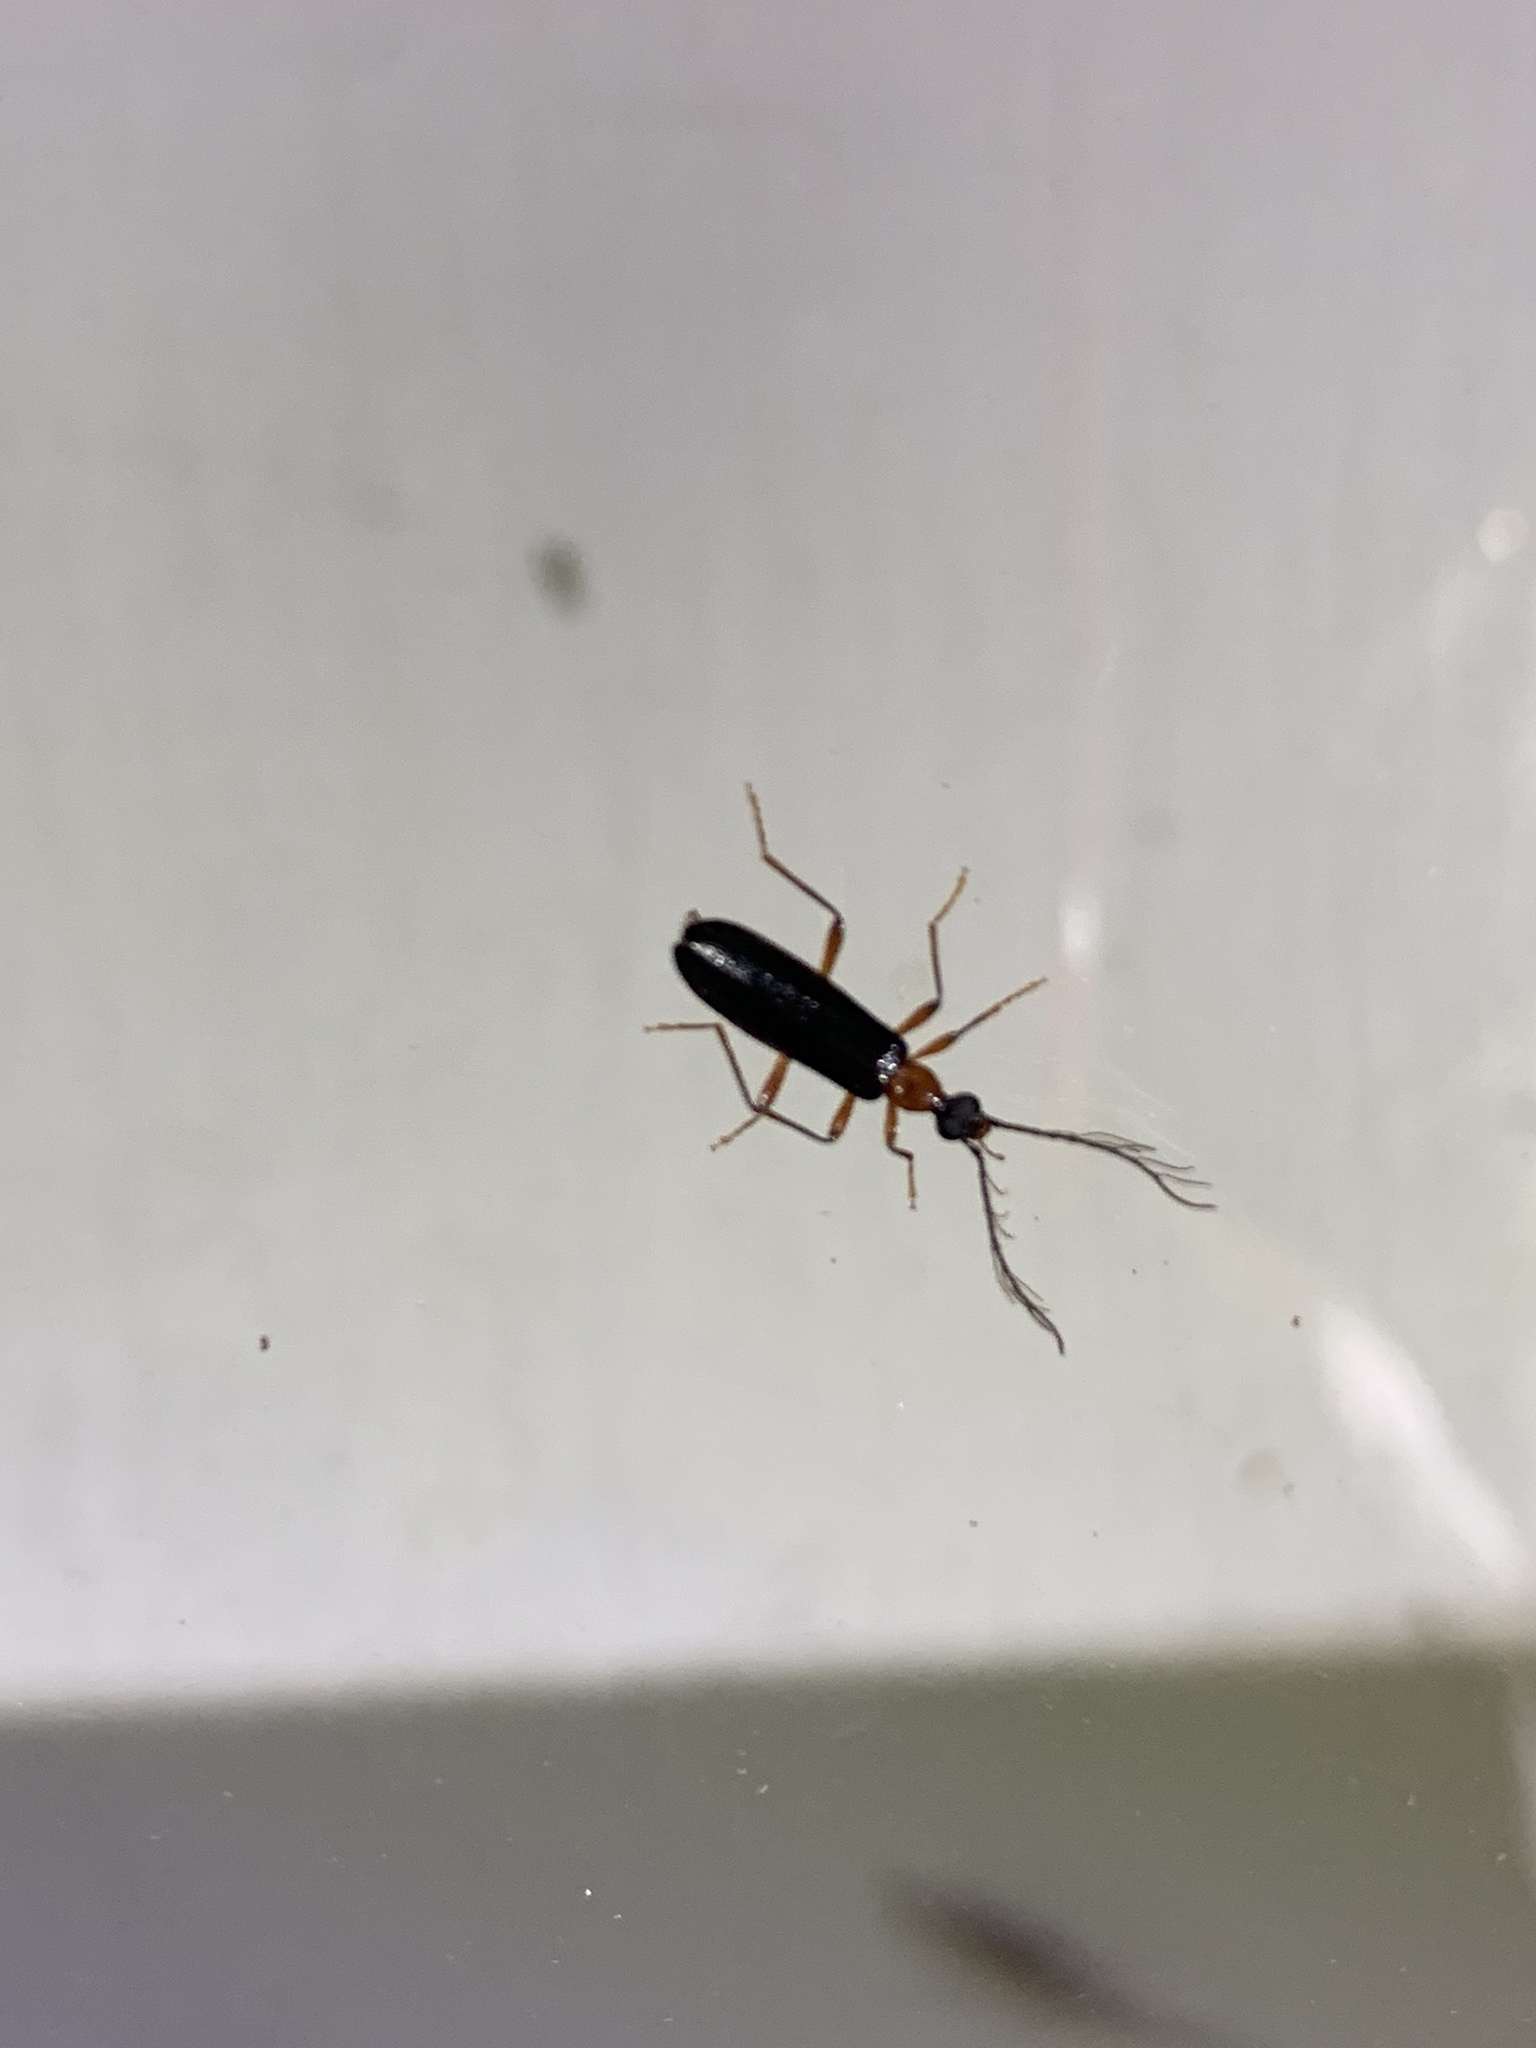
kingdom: Animalia
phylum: Arthropoda
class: Insecta
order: Coleoptera
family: Pyrochroidae
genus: Dendroides
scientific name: Dendroides canadensis
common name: Canada fire-colored beetle
